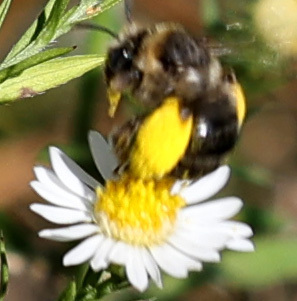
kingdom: Animalia
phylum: Arthropoda
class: Insecta
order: Hymenoptera
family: Apidae
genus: Melissodes
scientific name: Melissodes druriellus
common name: Drury's long-horned bee
